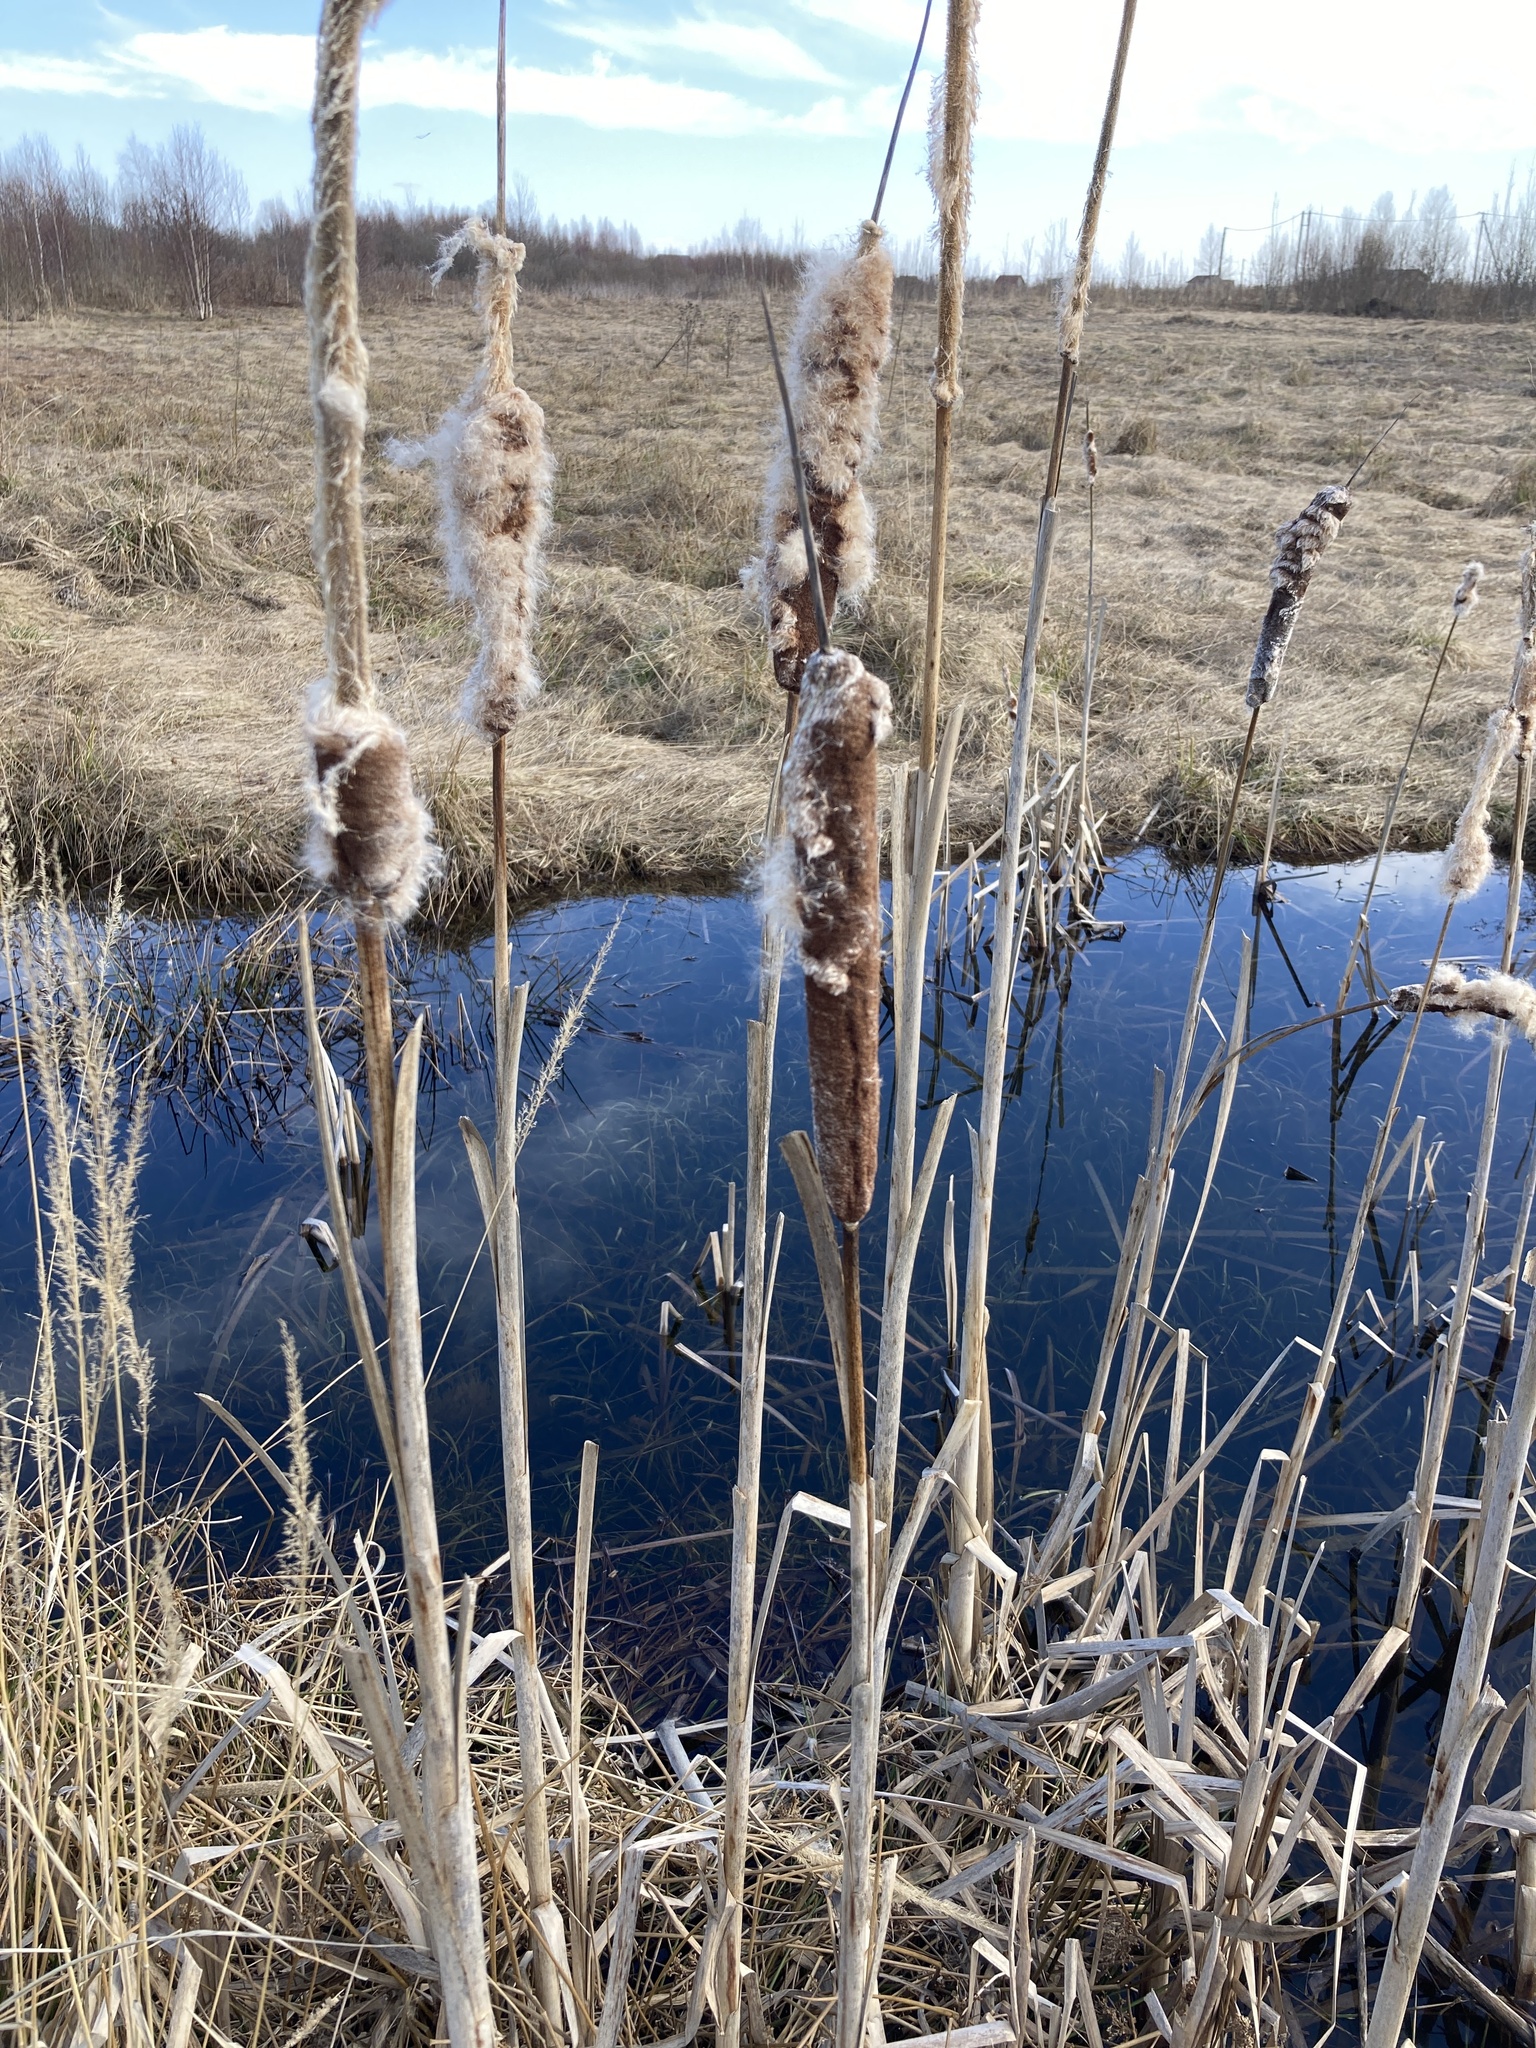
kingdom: Plantae
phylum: Tracheophyta
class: Liliopsida
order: Poales
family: Typhaceae
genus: Typha
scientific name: Typha latifolia
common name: Broadleaf cattail
